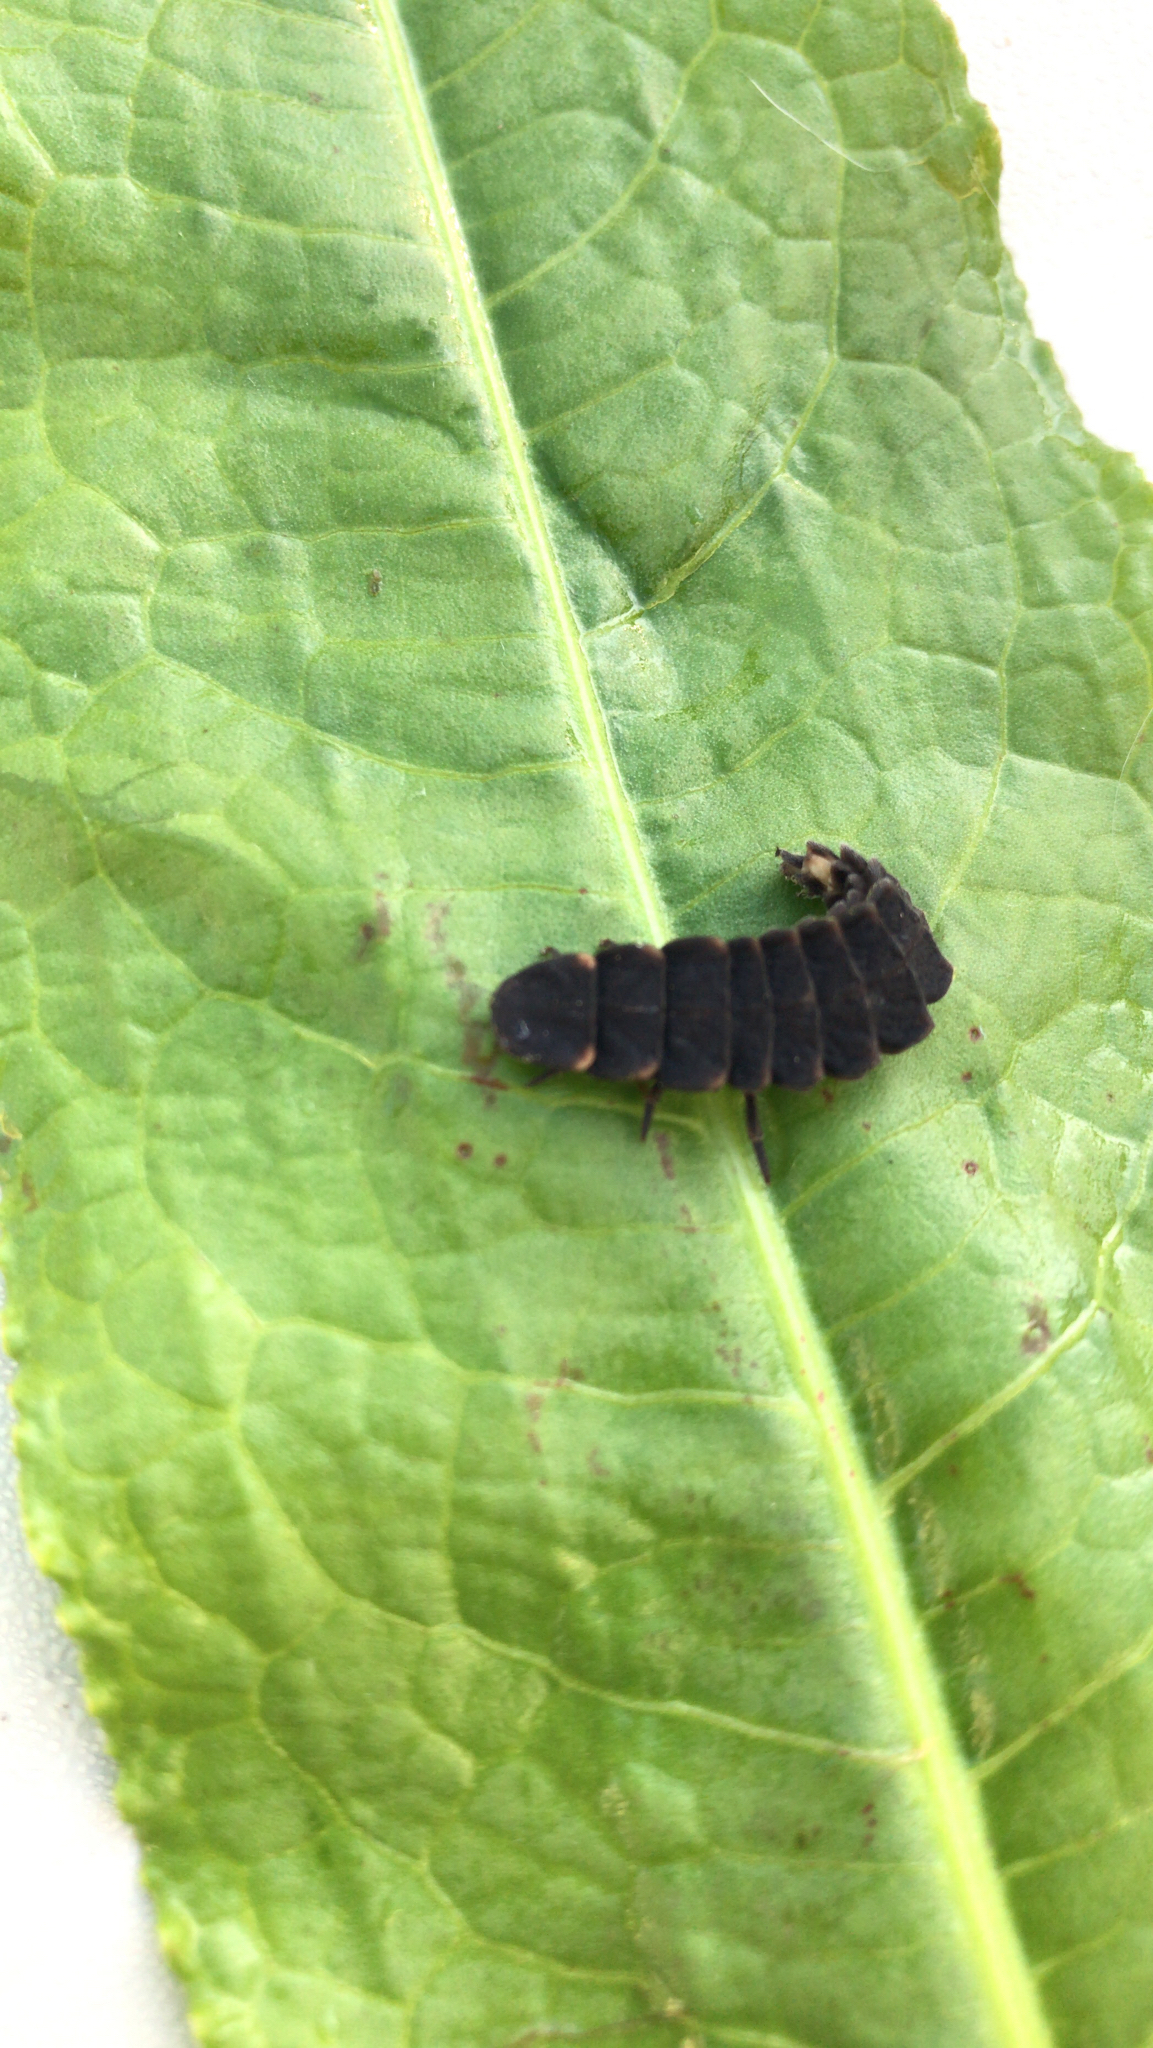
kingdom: Animalia
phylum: Arthropoda
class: Insecta
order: Coleoptera
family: Lampyridae
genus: Lampyris
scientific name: Lampyris noctiluca
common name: Glow-worm
